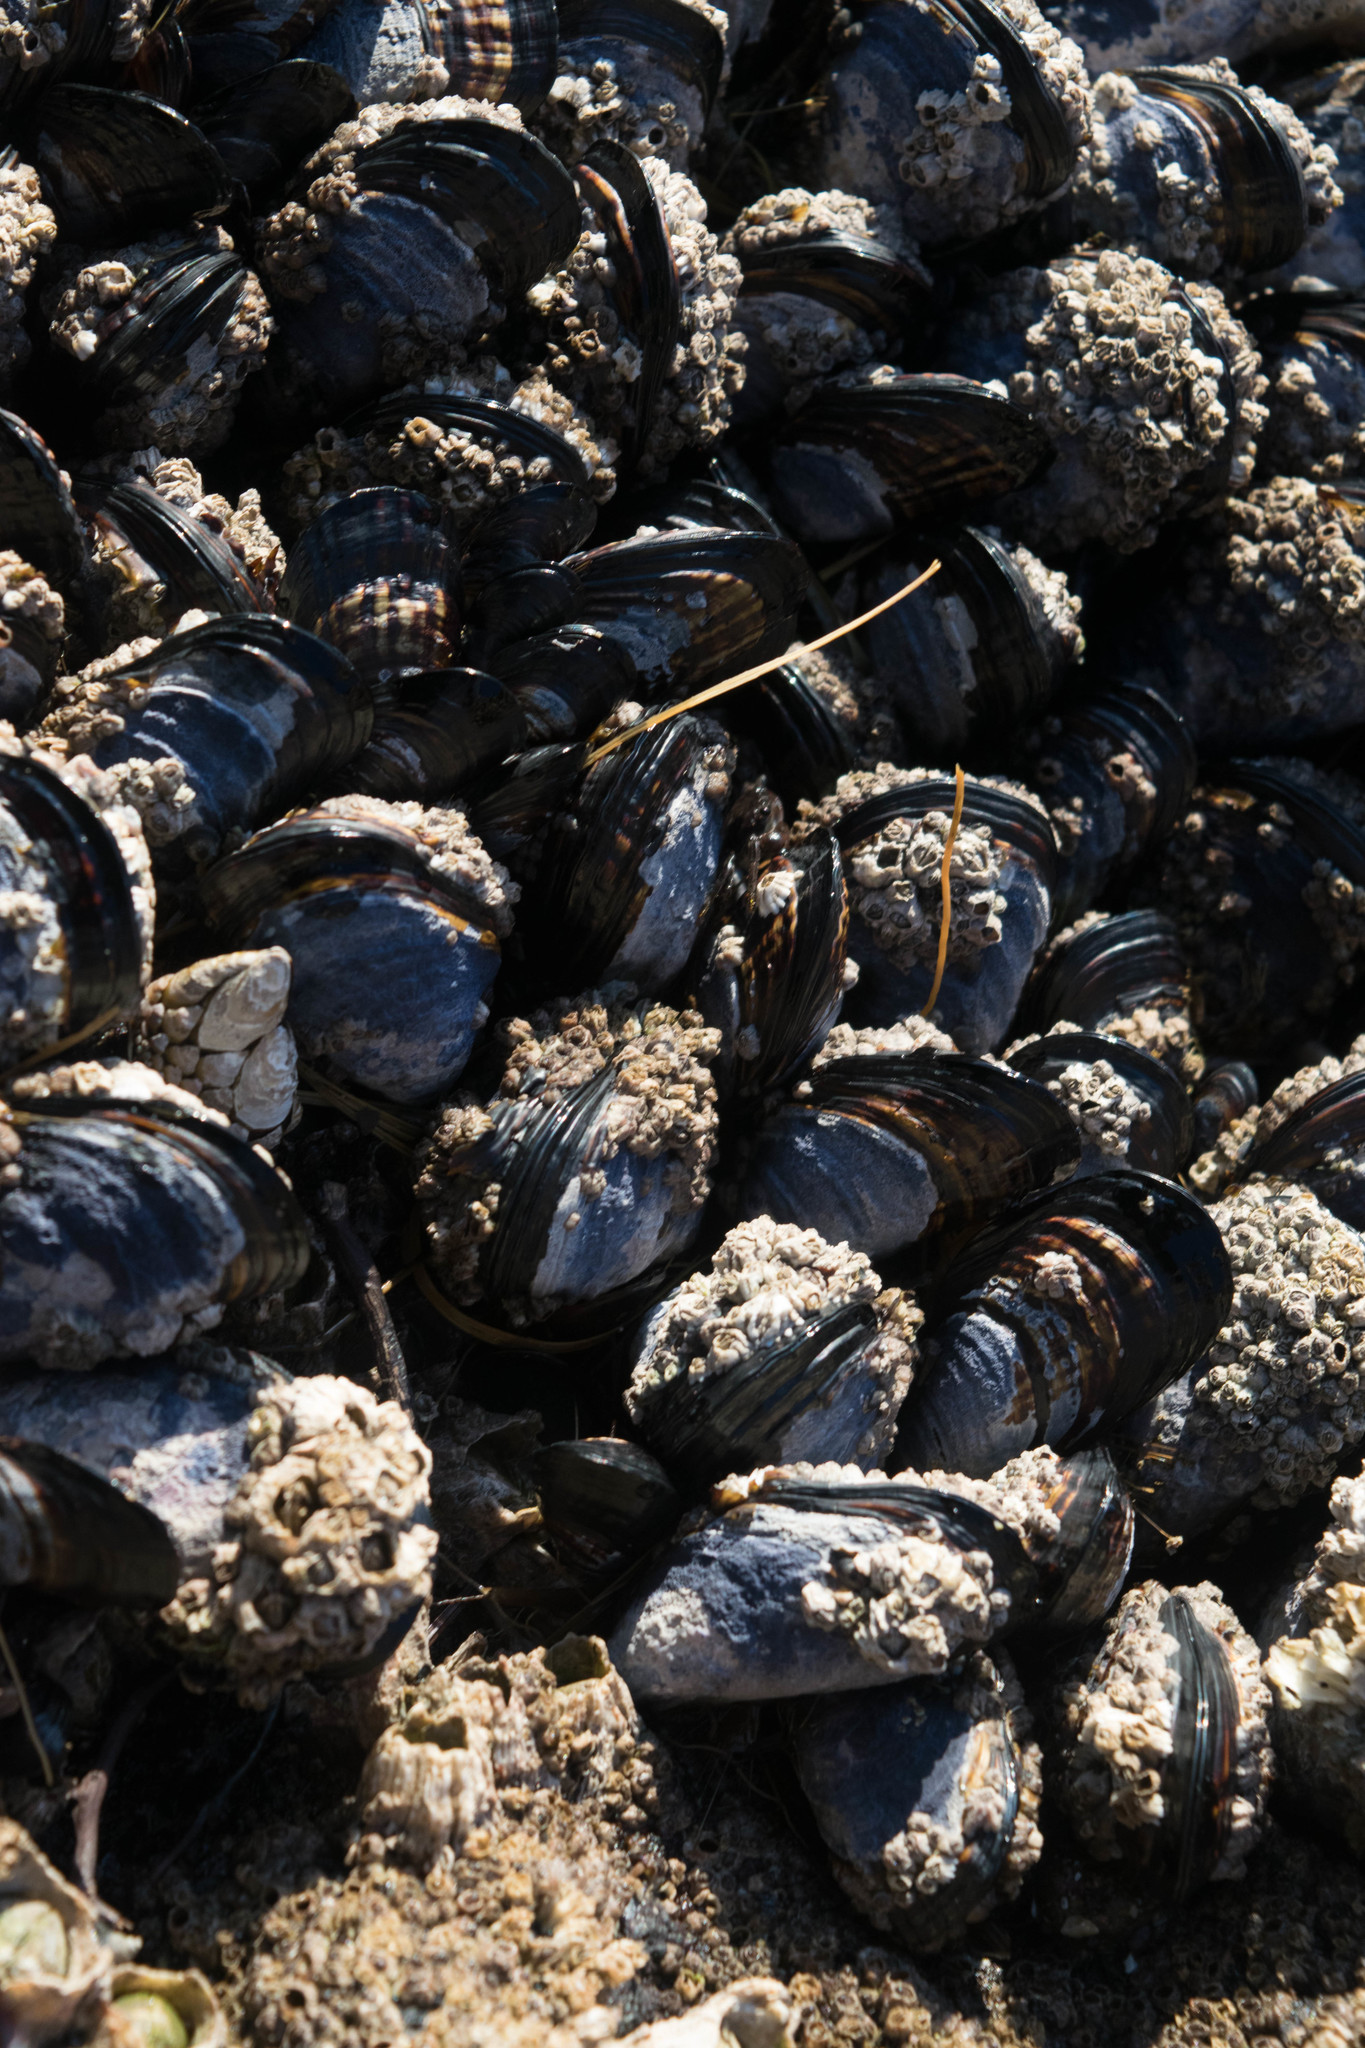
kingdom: Animalia
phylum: Mollusca
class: Bivalvia
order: Mytilida
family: Mytilidae
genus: Mytilus
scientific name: Mytilus californianus
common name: California mussel
